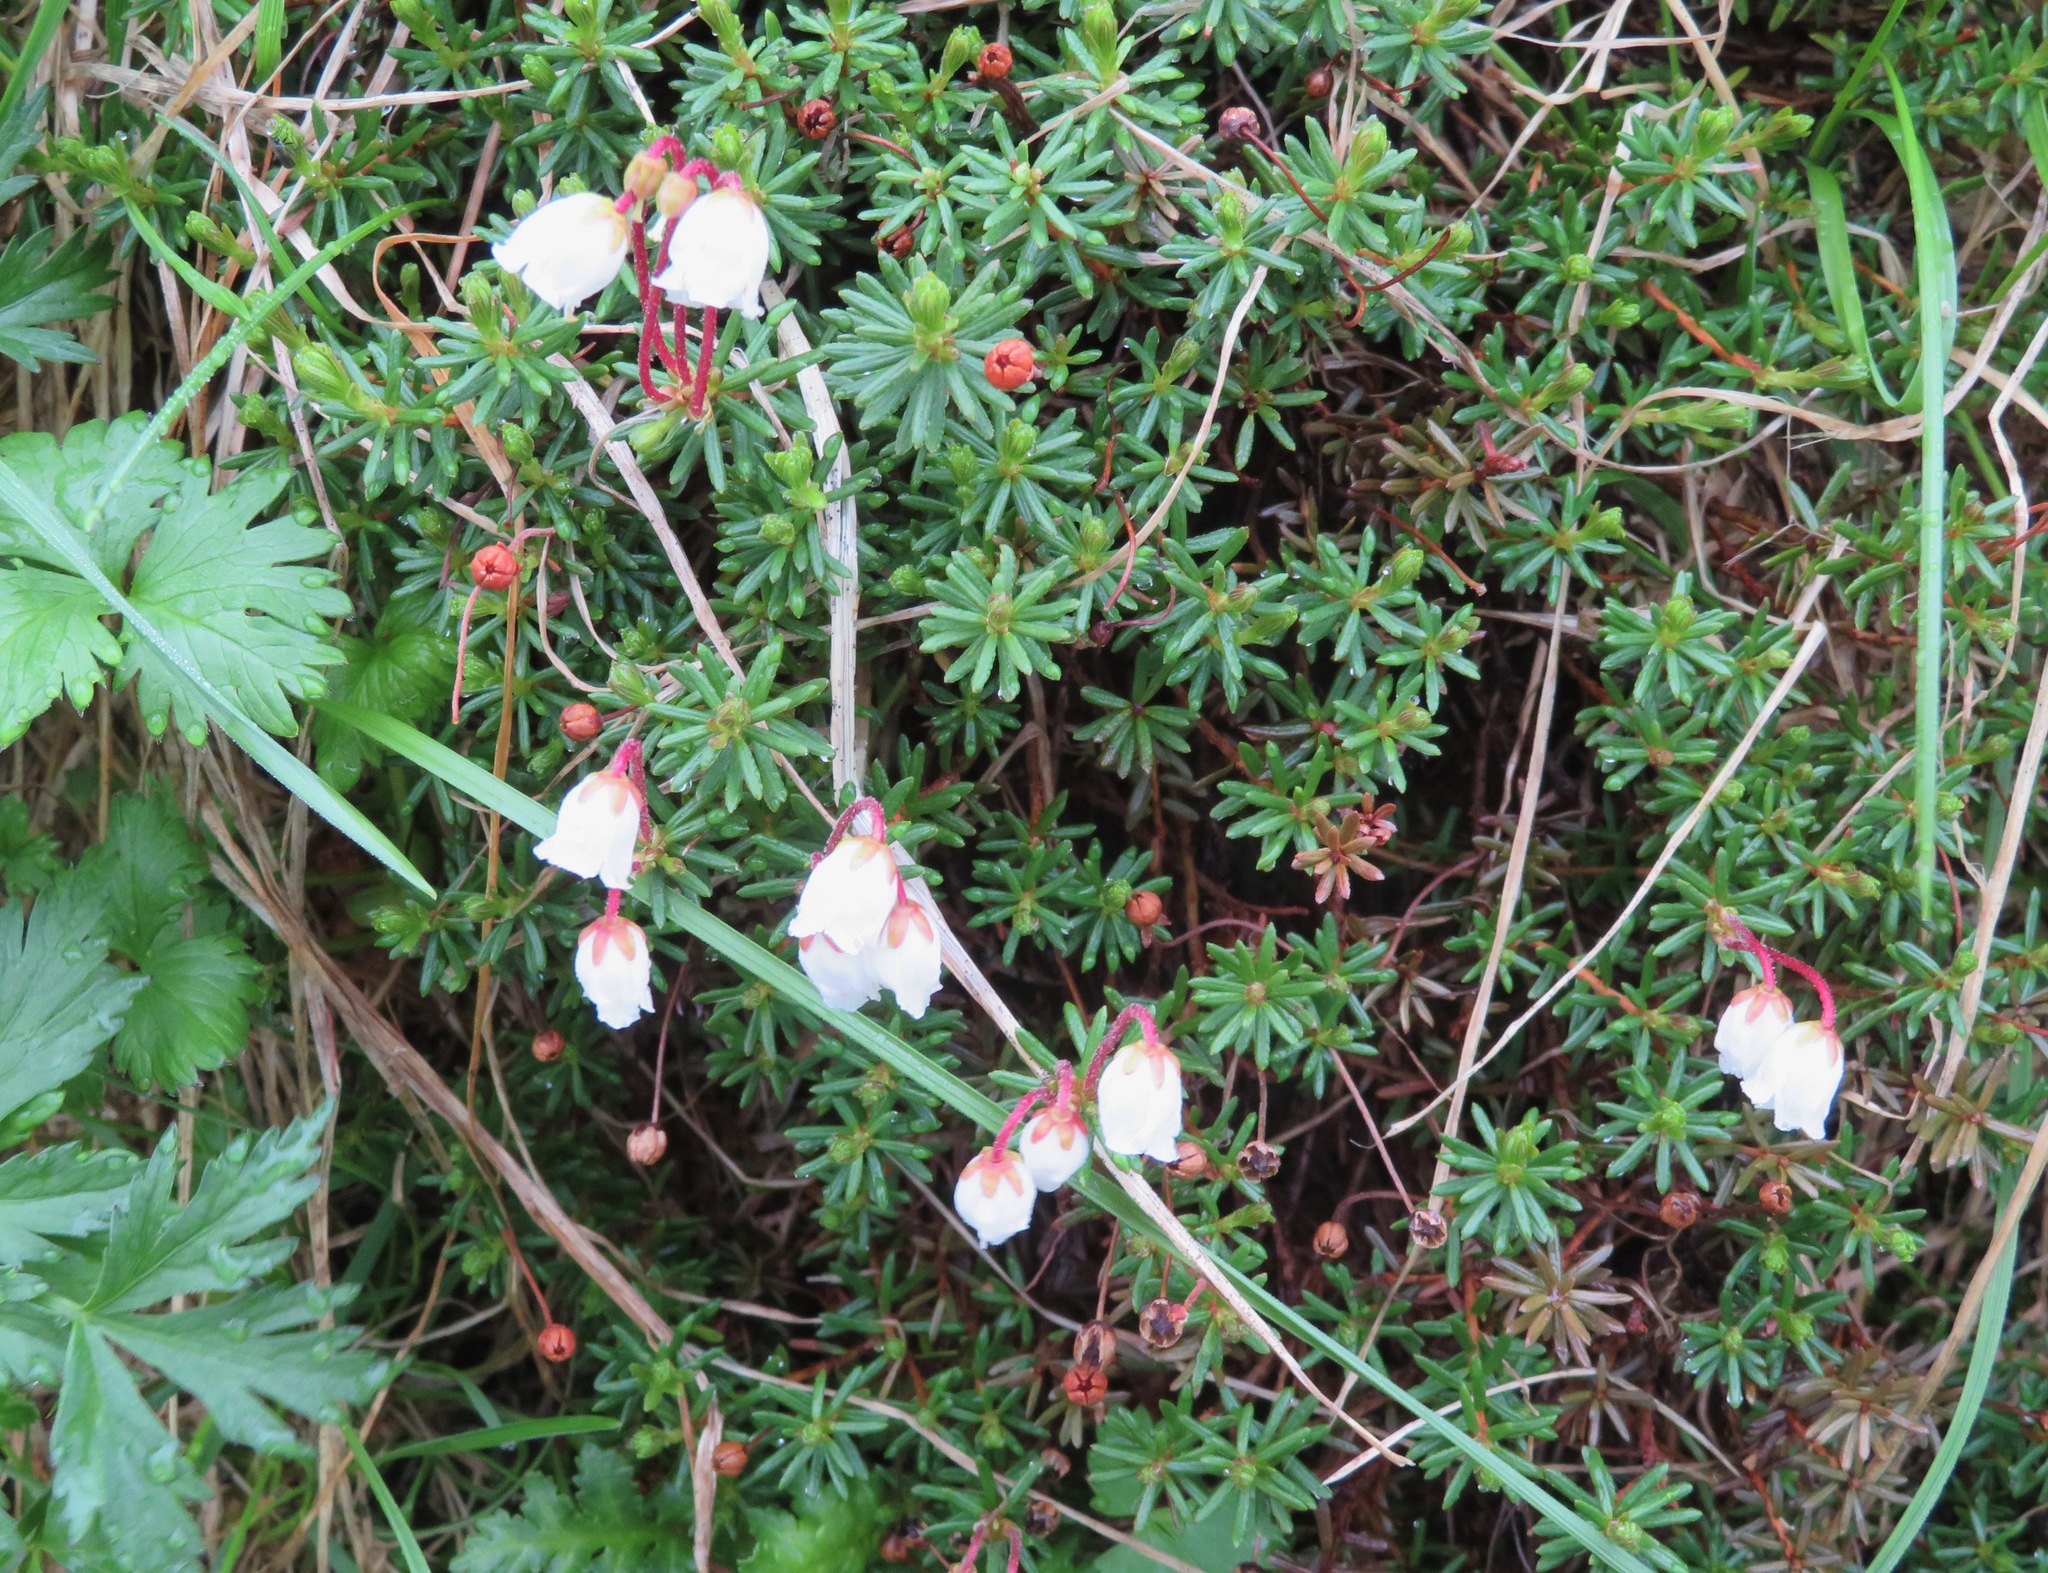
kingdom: Plantae
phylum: Tracheophyta
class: Magnoliopsida
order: Ericales
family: Ericaceae
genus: Phyllodoce
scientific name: Phyllodoce nipponica
